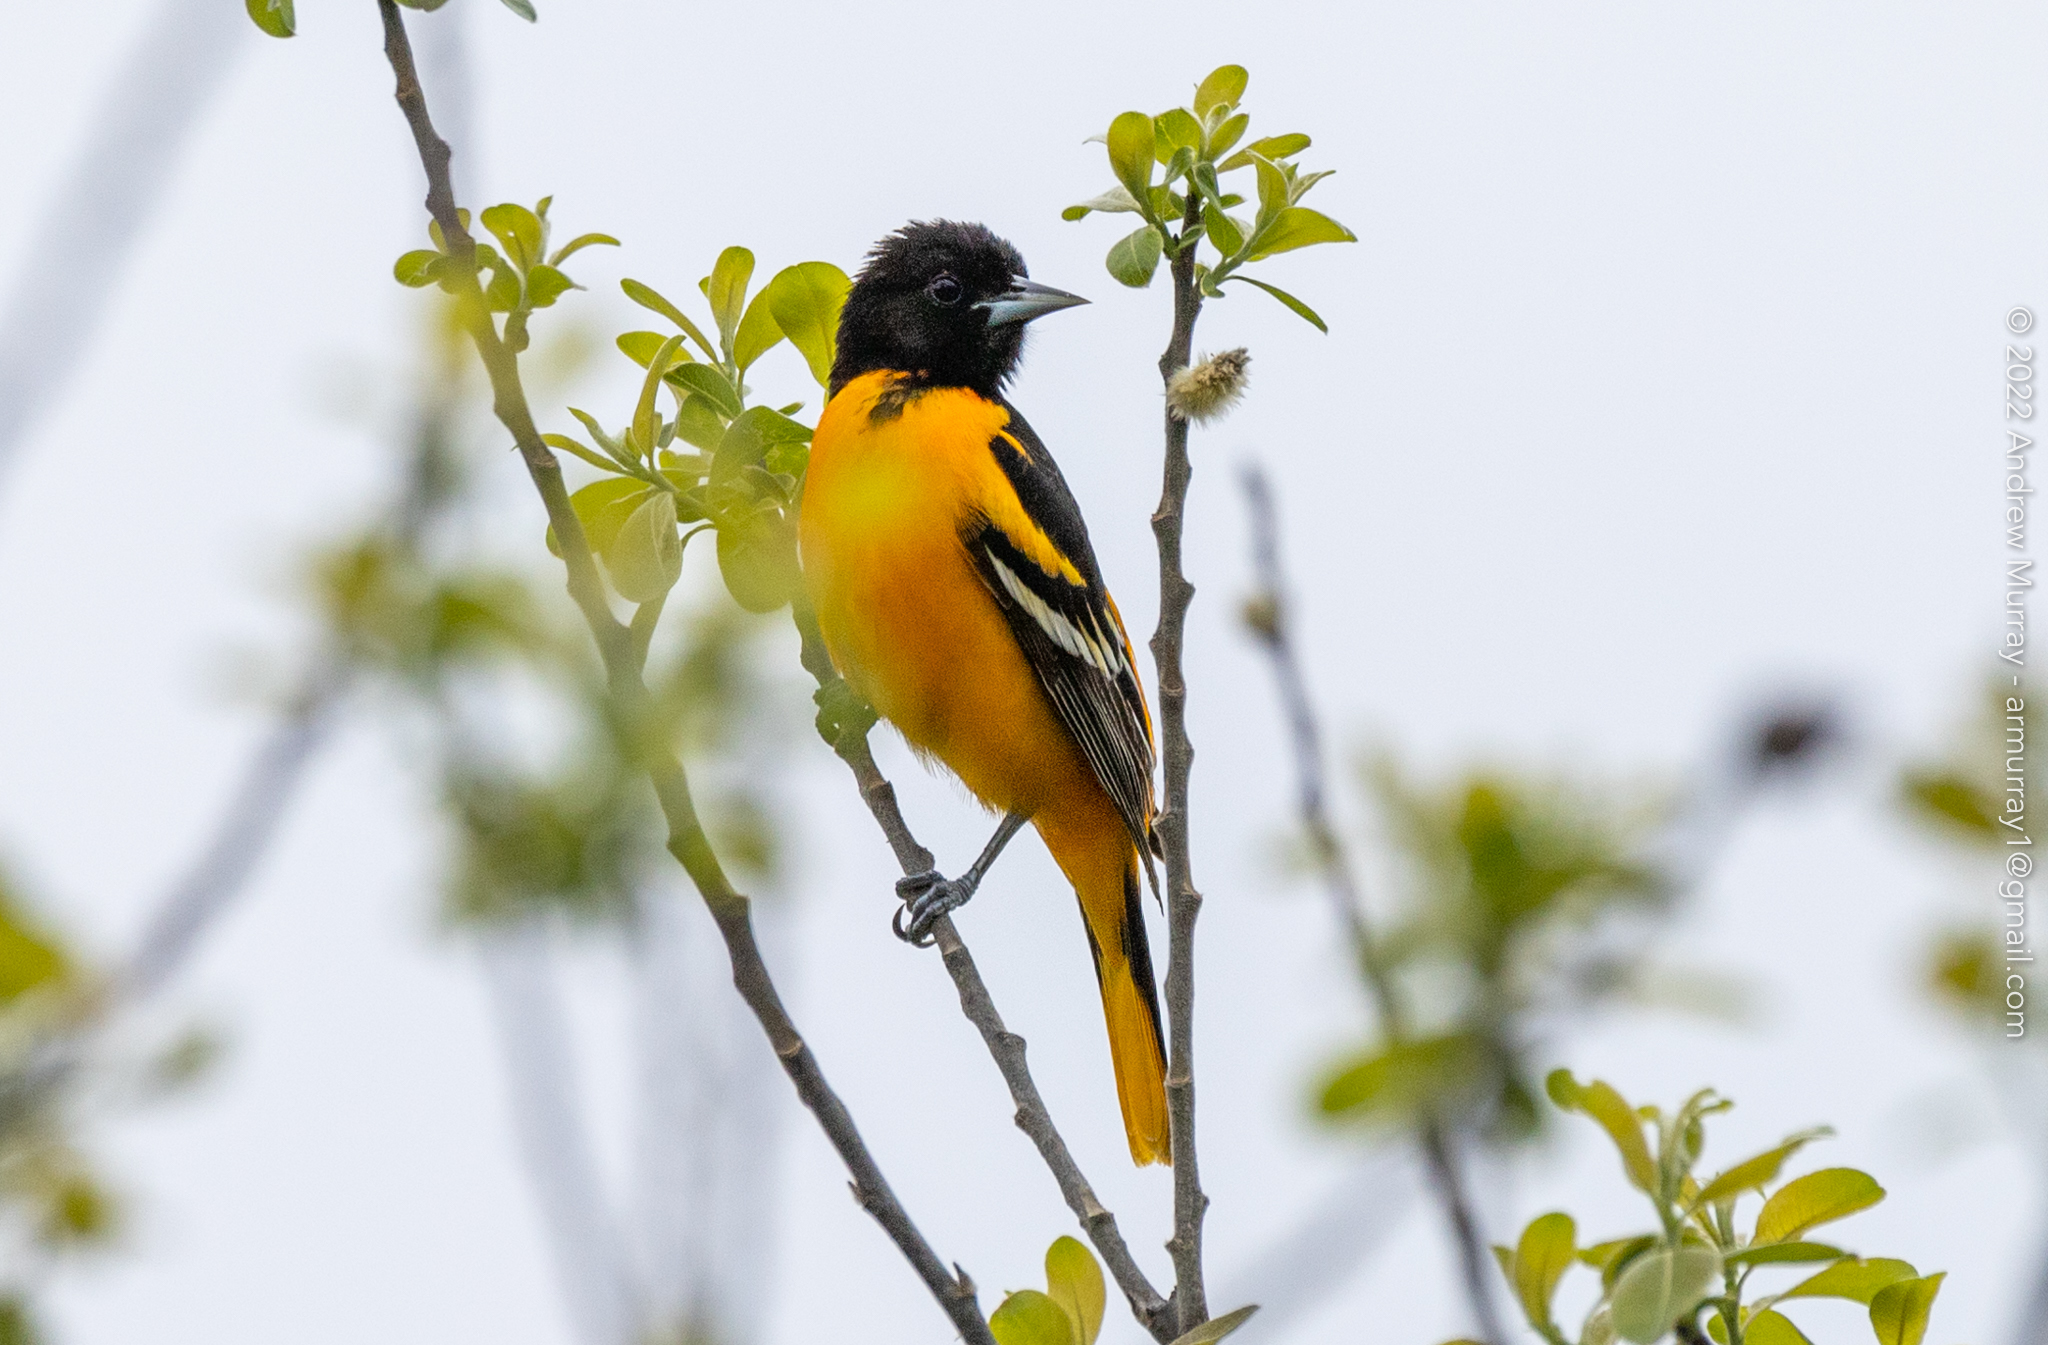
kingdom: Animalia
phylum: Chordata
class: Aves
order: Passeriformes
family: Icteridae
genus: Icterus
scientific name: Icterus galbula
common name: Baltimore oriole
